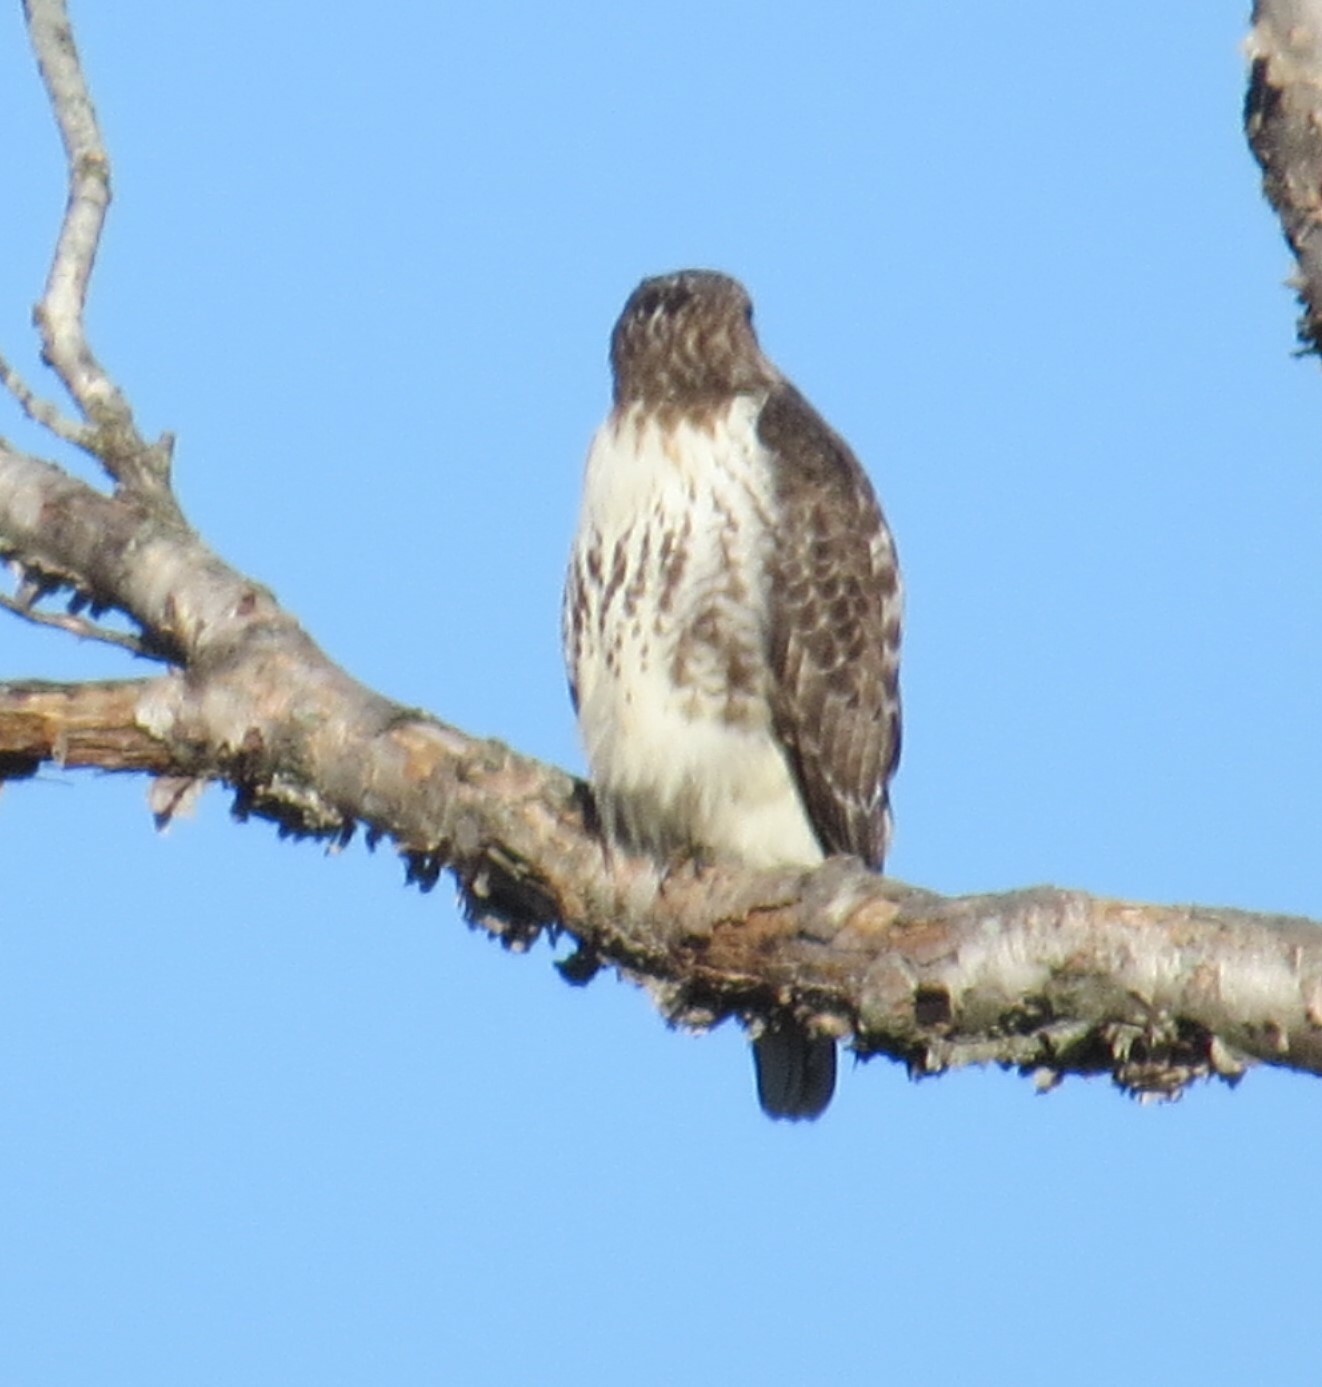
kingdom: Animalia
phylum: Chordata
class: Aves
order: Accipitriformes
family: Accipitridae
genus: Buteo
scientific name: Buteo jamaicensis
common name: Red-tailed hawk
